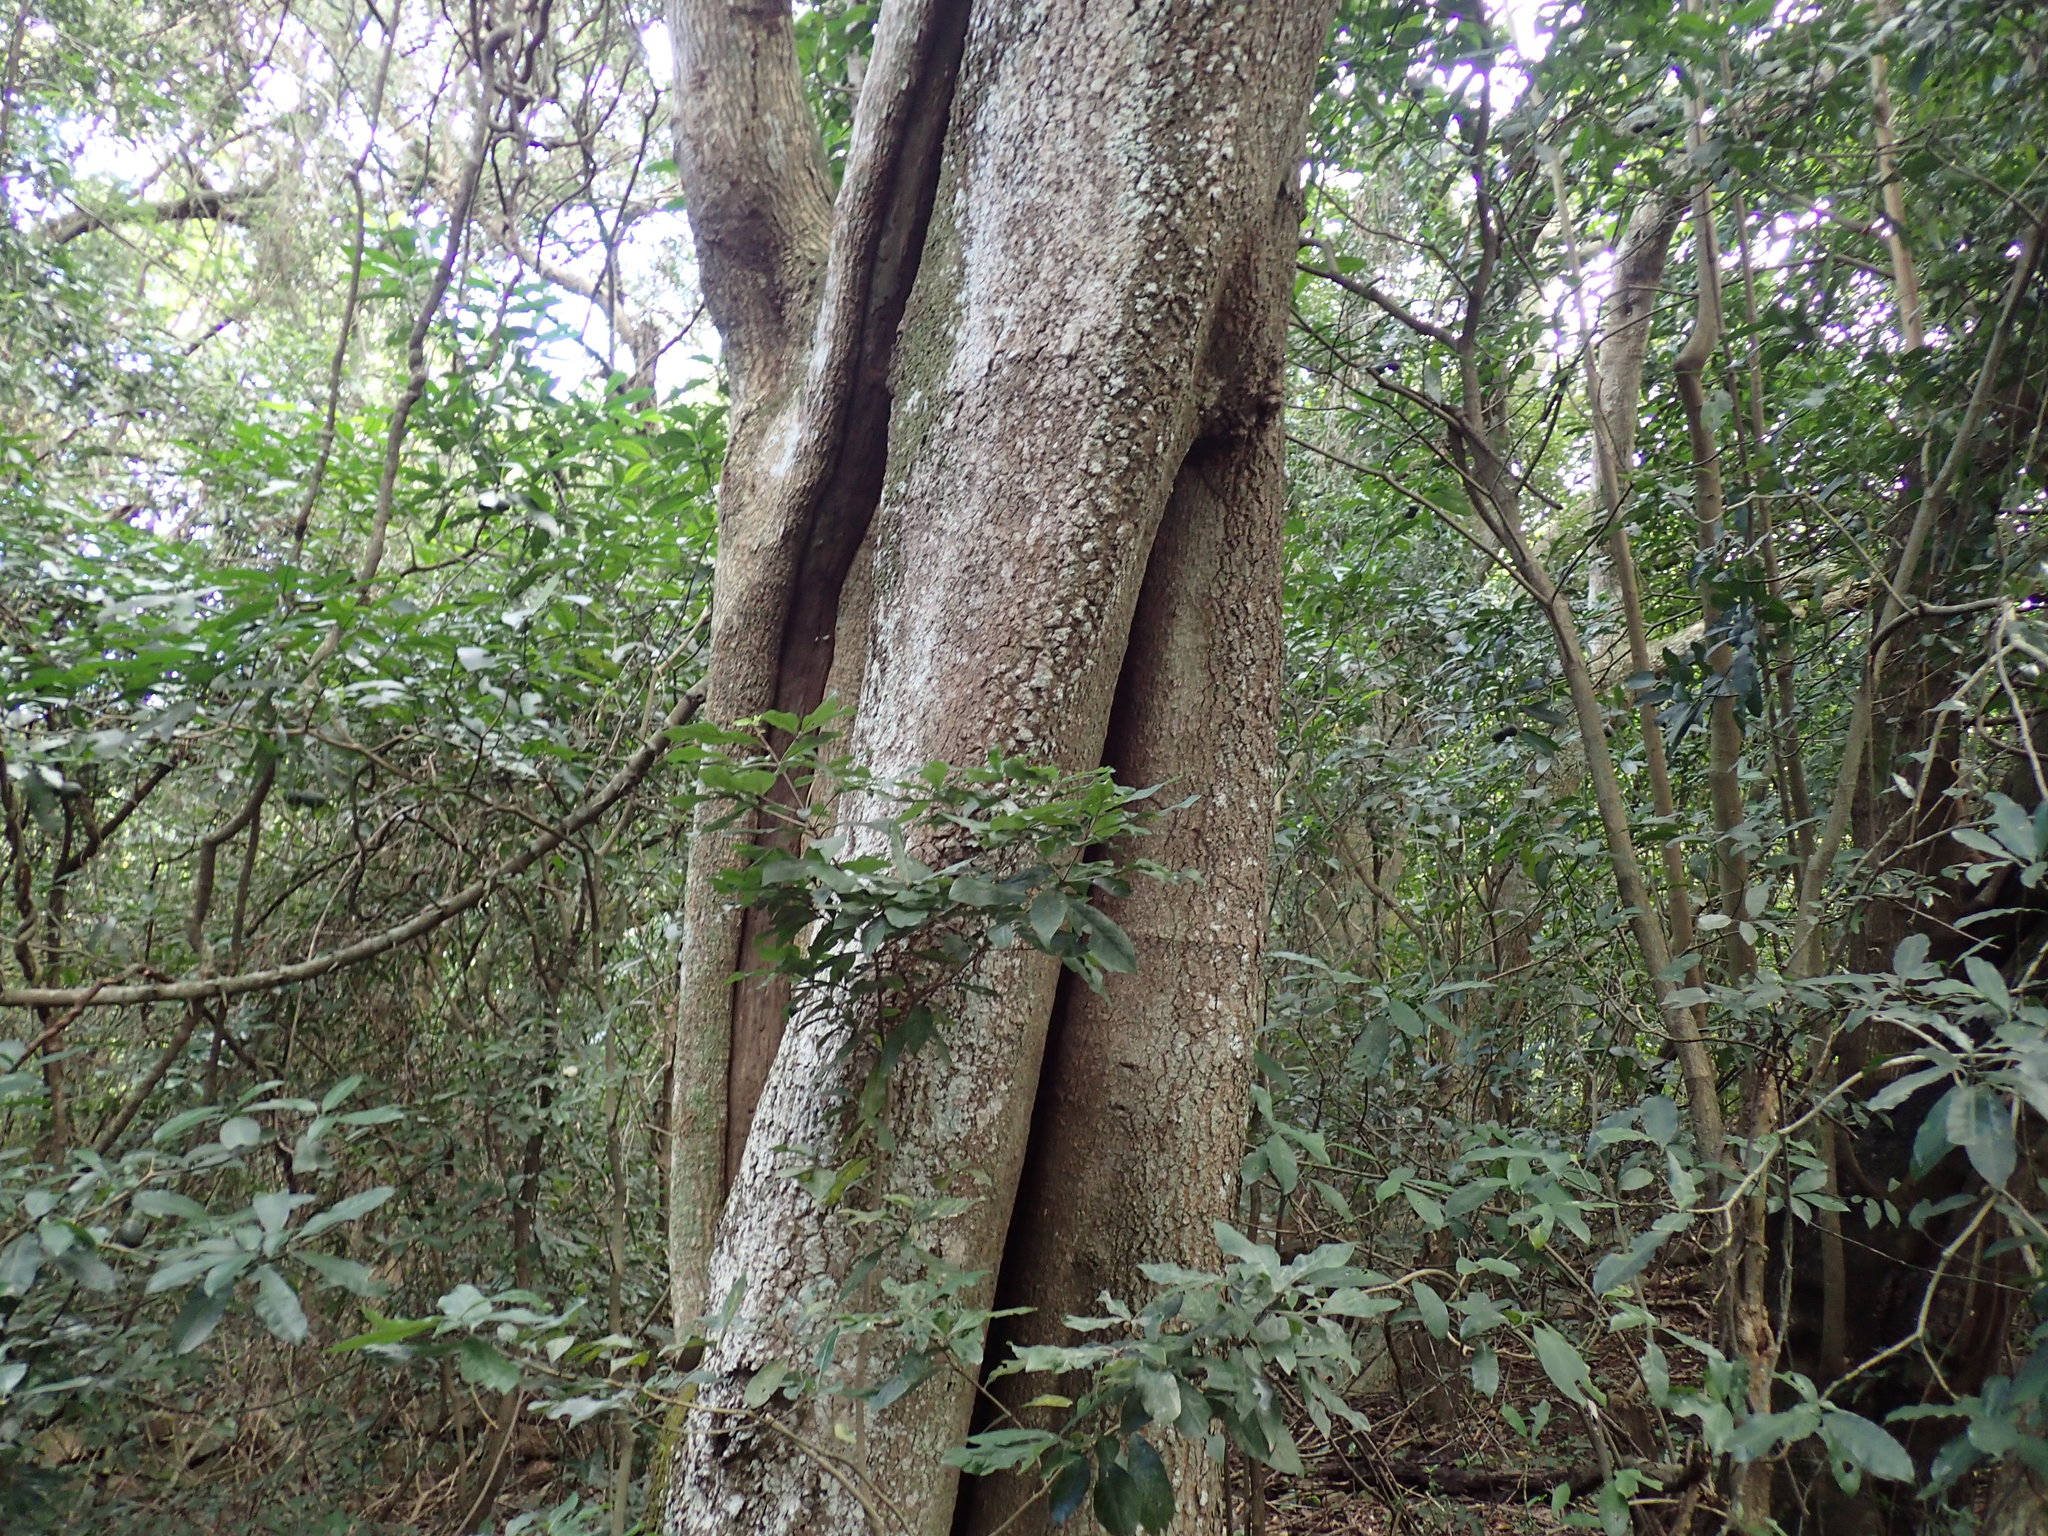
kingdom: Plantae
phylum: Tracheophyta
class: Magnoliopsida
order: Sapindales
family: Anacardiaceae
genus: Protorhus
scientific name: Protorhus longifolia
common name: Red-beech
